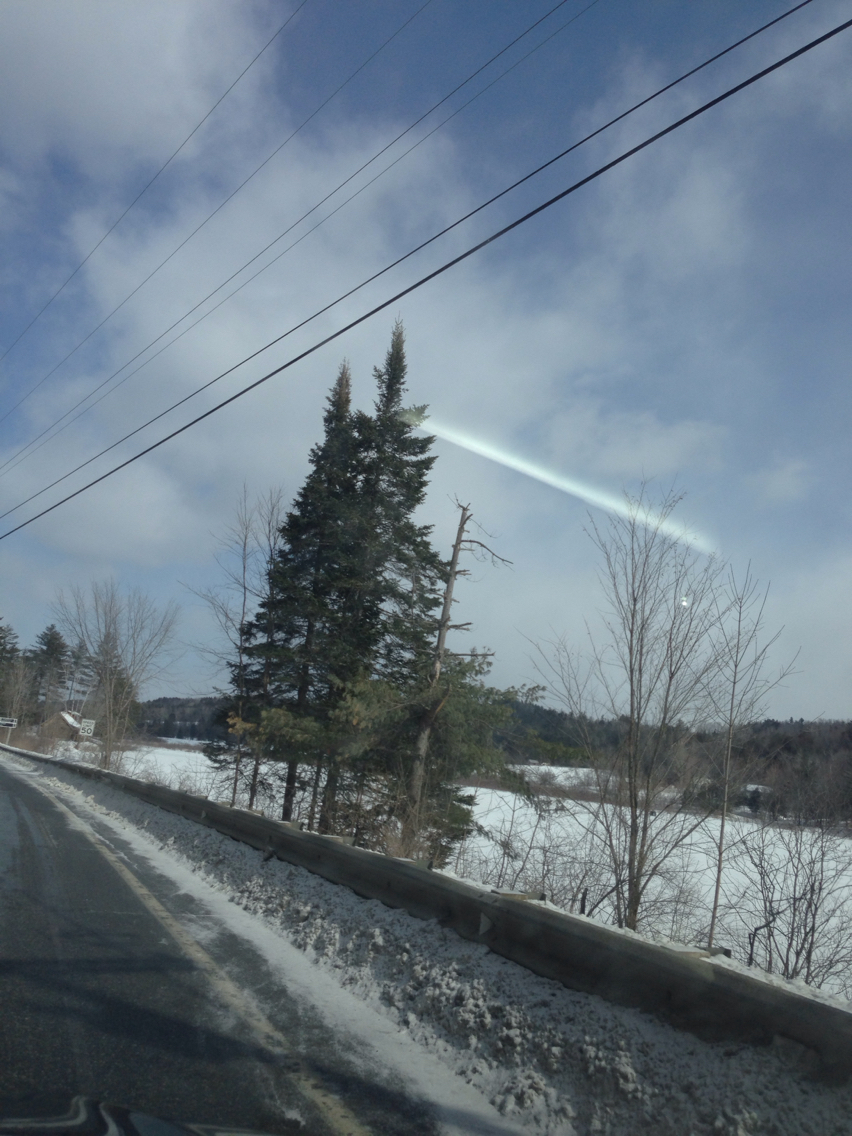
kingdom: Plantae
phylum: Tracheophyta
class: Pinopsida
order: Pinales
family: Pinaceae
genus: Abies
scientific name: Abies balsamea
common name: Balsam fir
